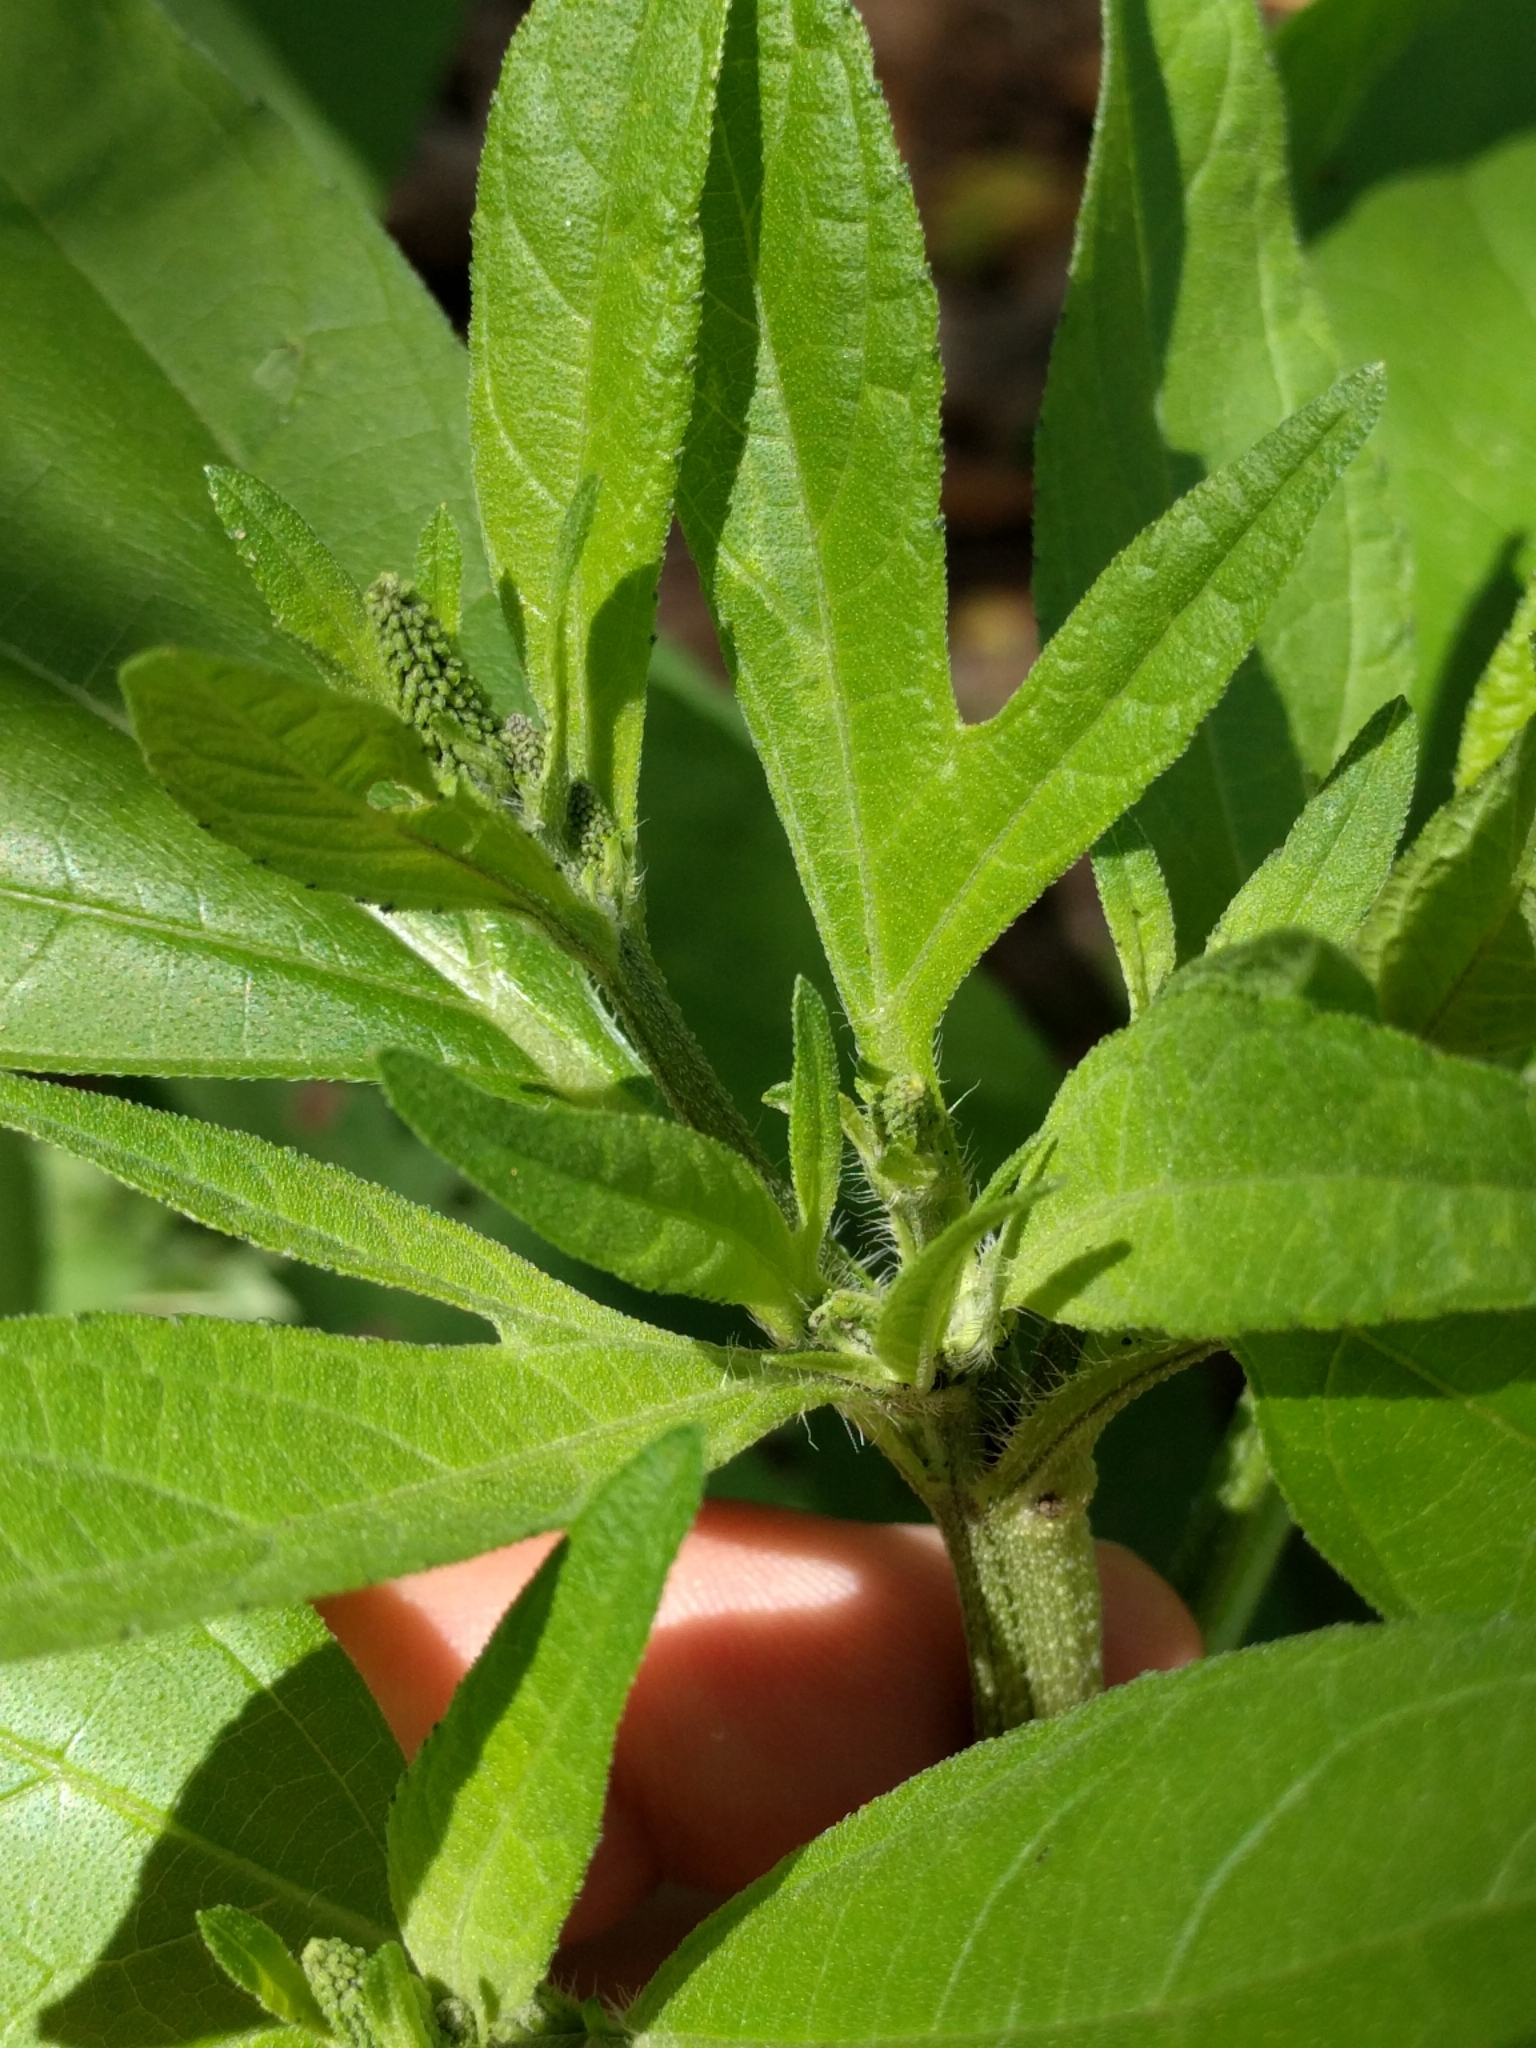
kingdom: Plantae
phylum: Tracheophyta
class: Magnoliopsida
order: Asterales
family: Asteraceae
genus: Ambrosia
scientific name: Ambrosia trifida
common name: Giant ragweed
